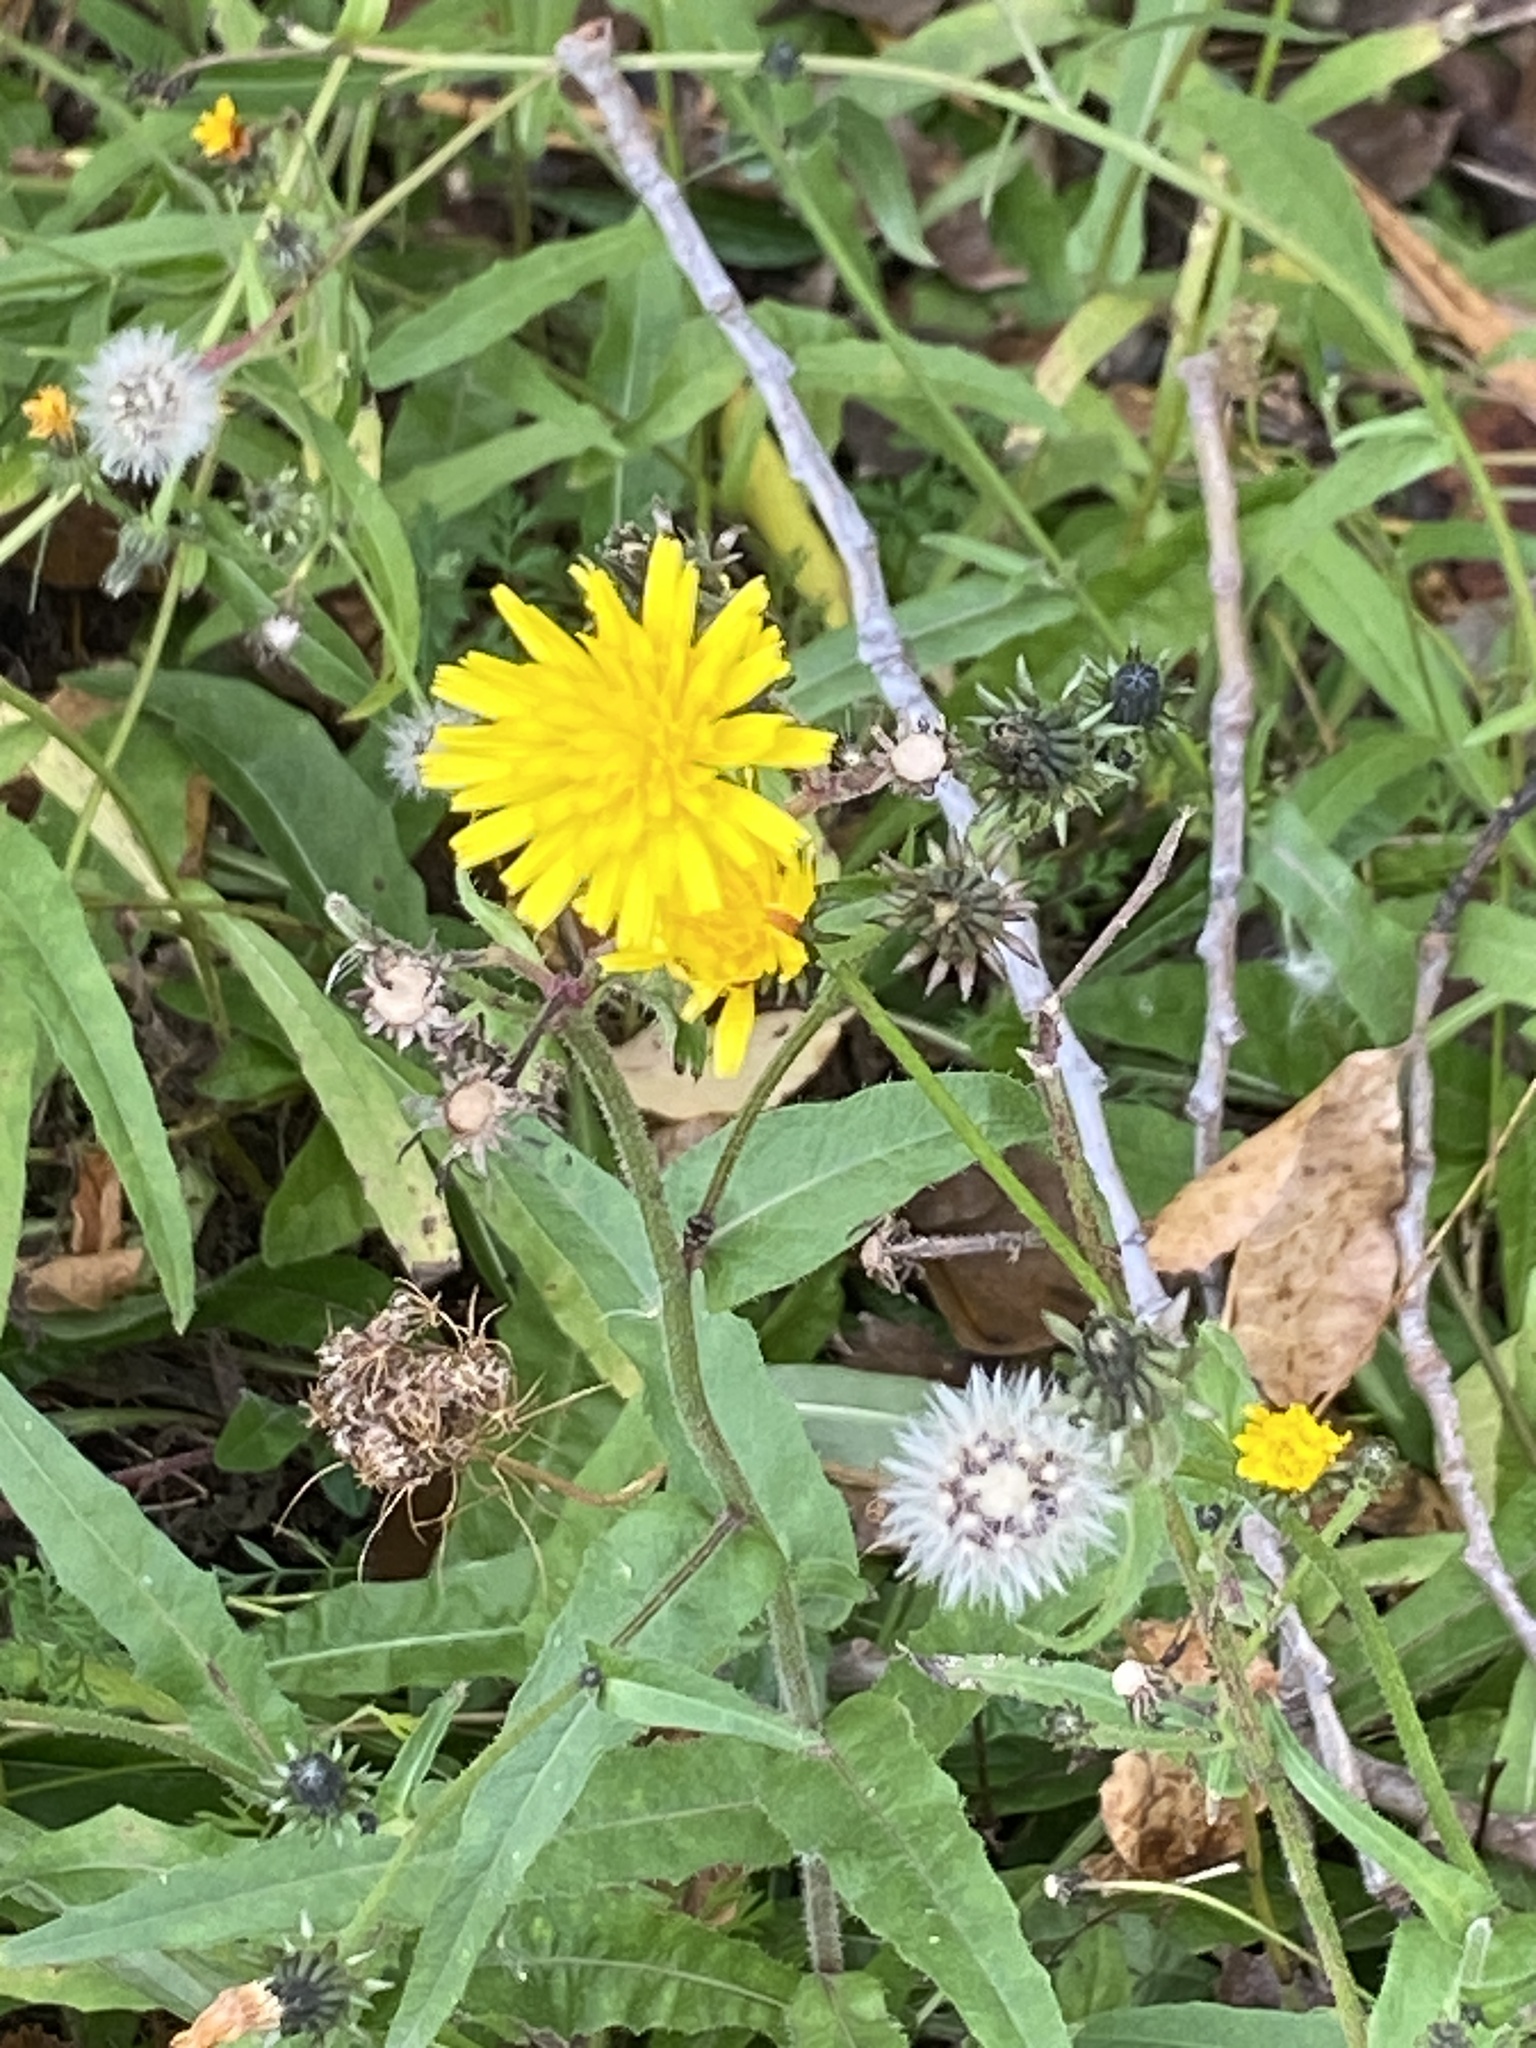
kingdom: Plantae
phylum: Tracheophyta
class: Magnoliopsida
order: Asterales
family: Asteraceae
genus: Picris
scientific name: Picris hieracioides
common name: Hawkweed oxtongue
